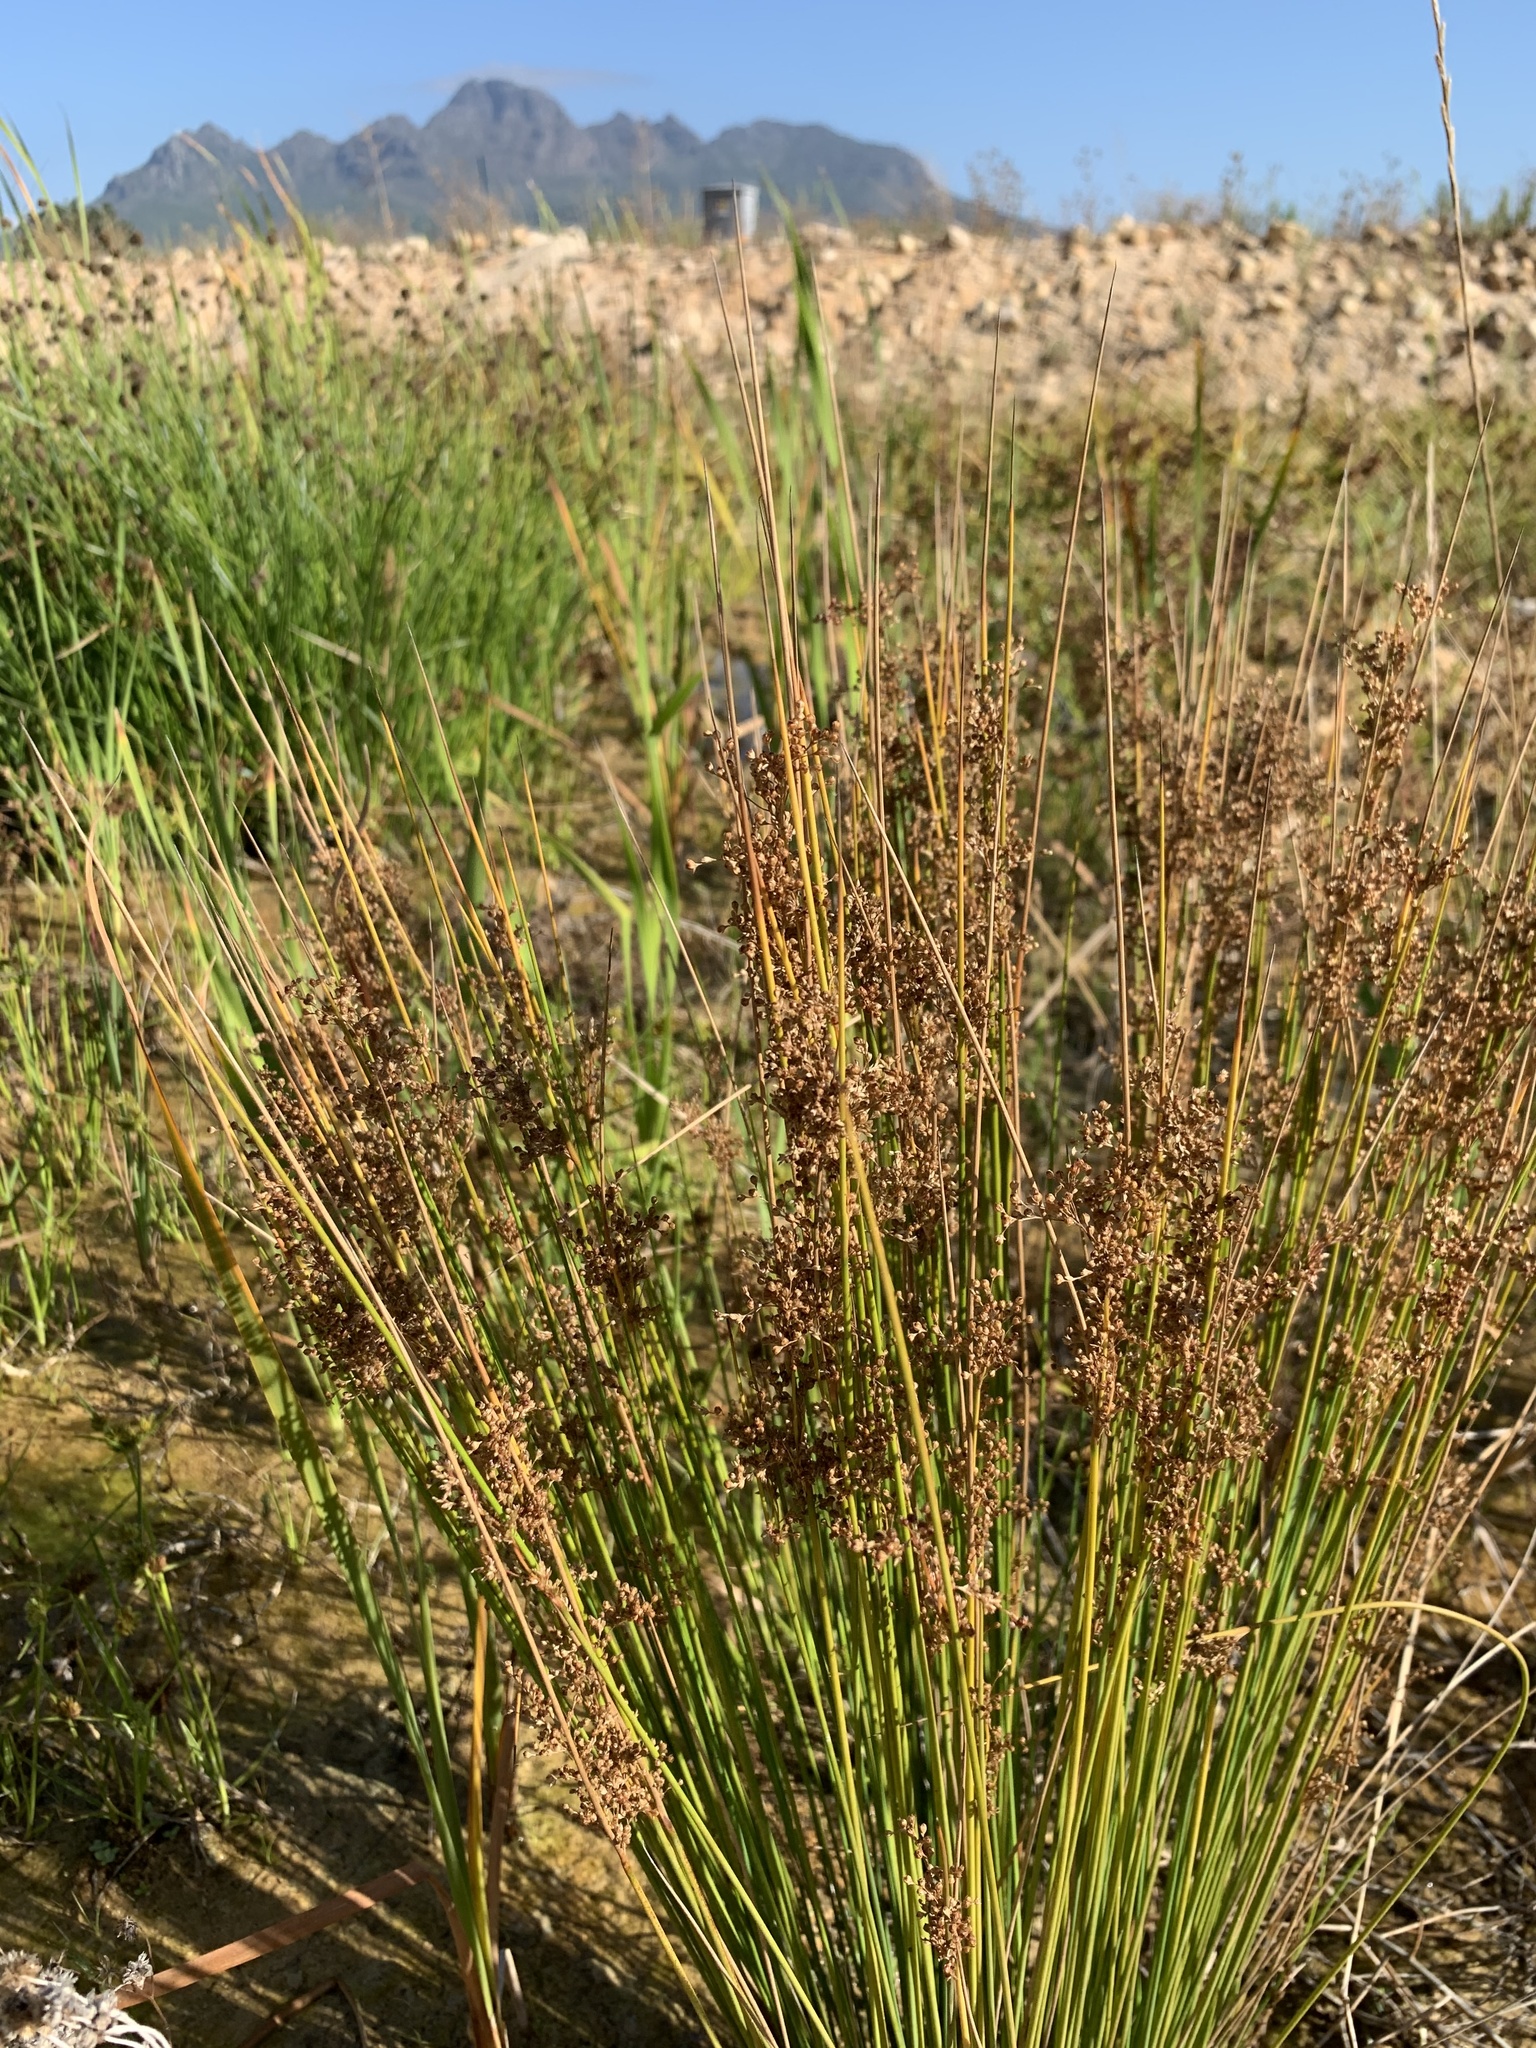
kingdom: Plantae
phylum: Tracheophyta
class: Liliopsida
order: Poales
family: Juncaceae
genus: Juncus
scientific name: Juncus effusus
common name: Soft rush
